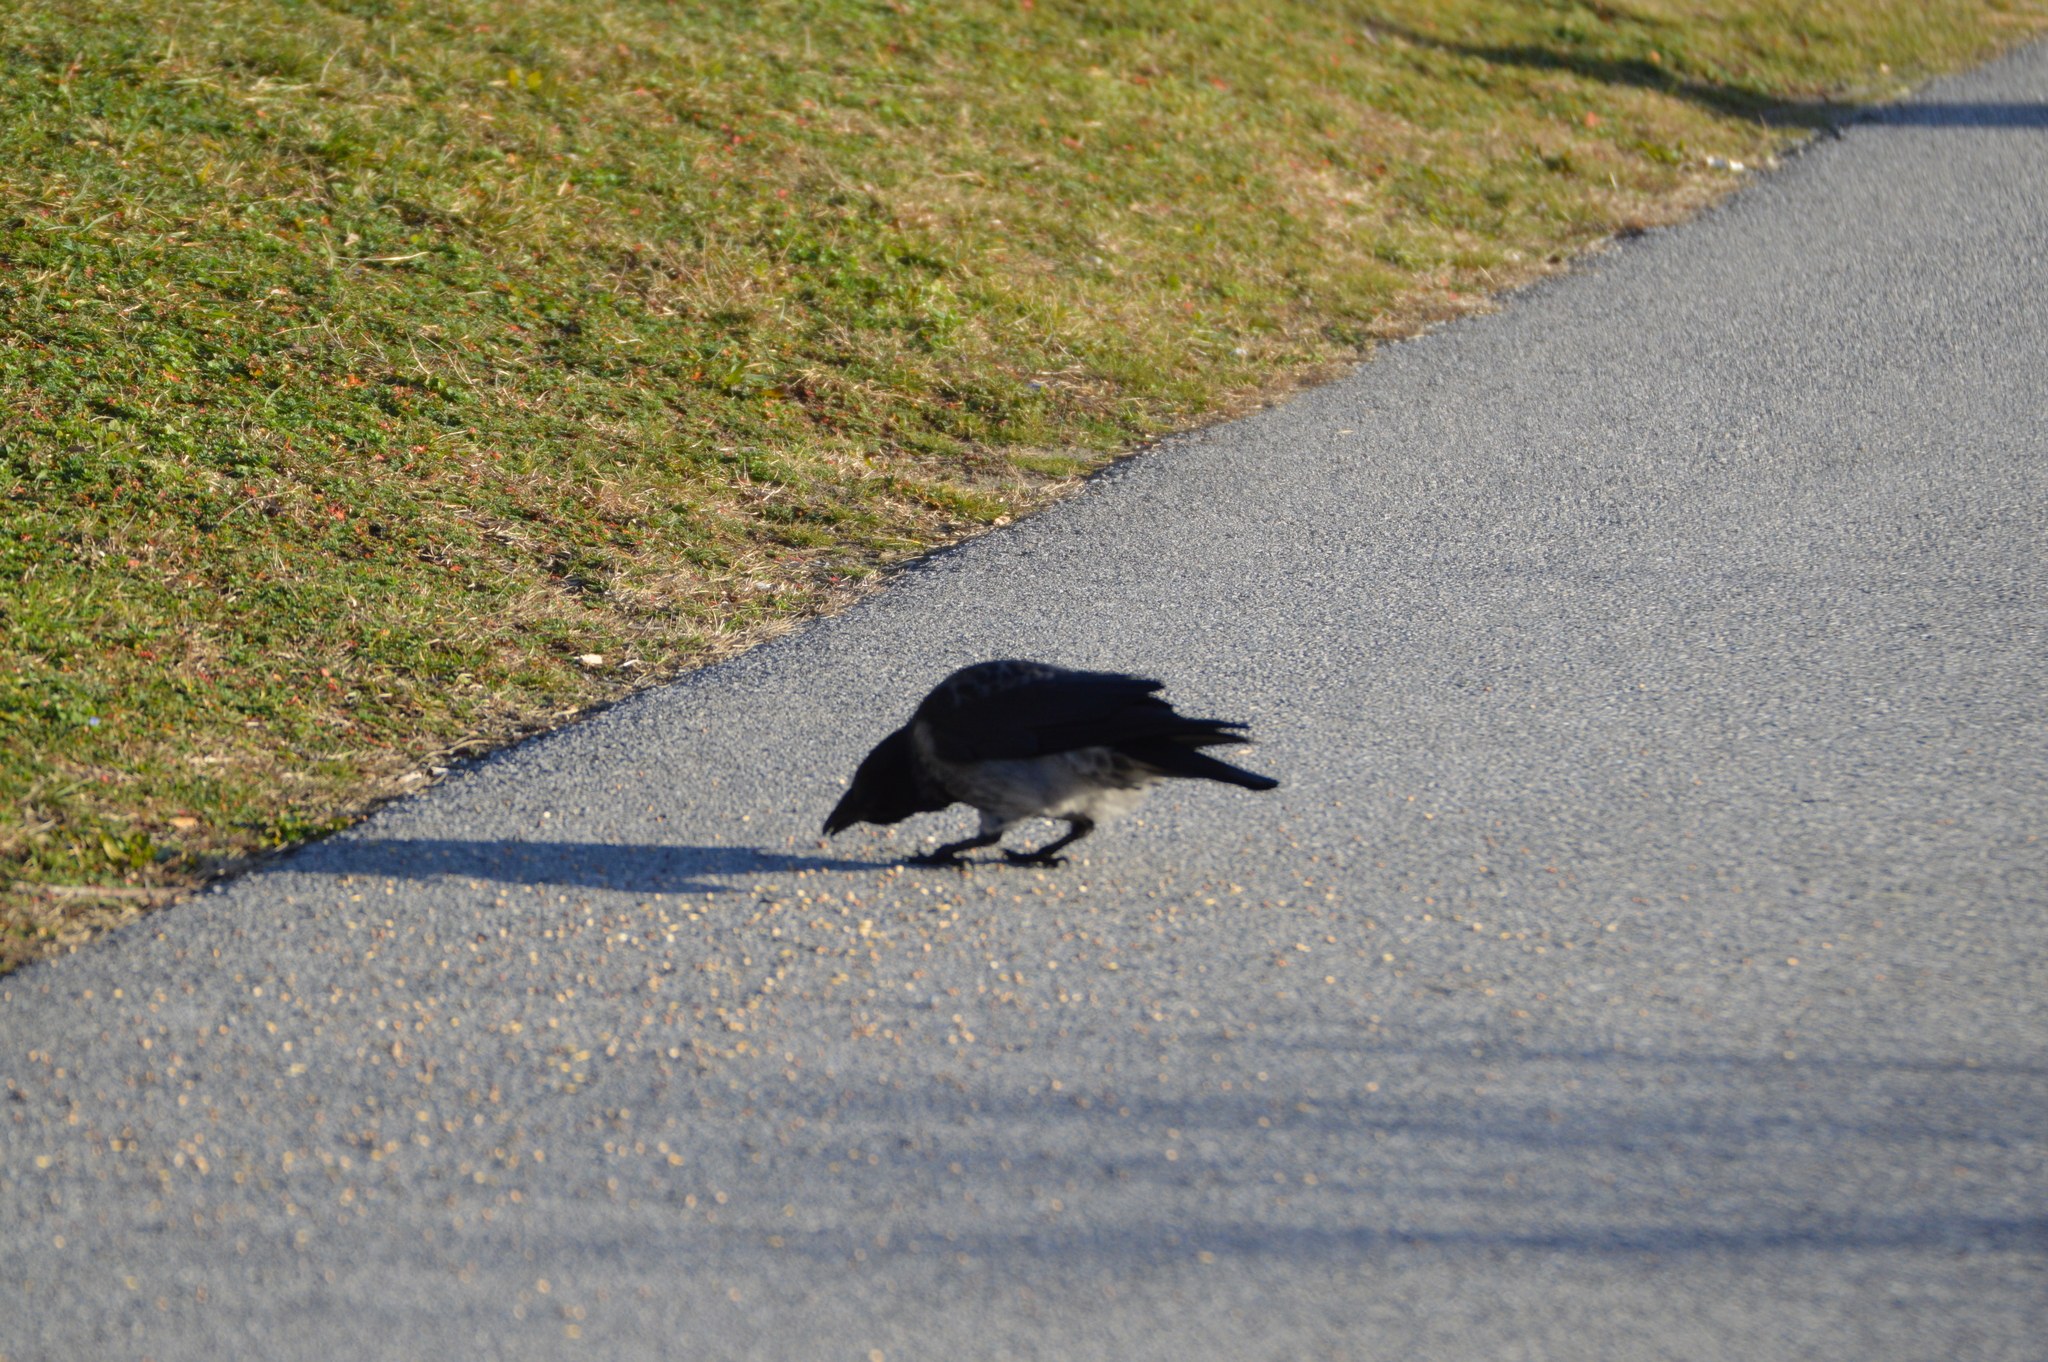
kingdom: Animalia
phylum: Chordata
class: Aves
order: Passeriformes
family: Corvidae
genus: Corvus
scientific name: Corvus
